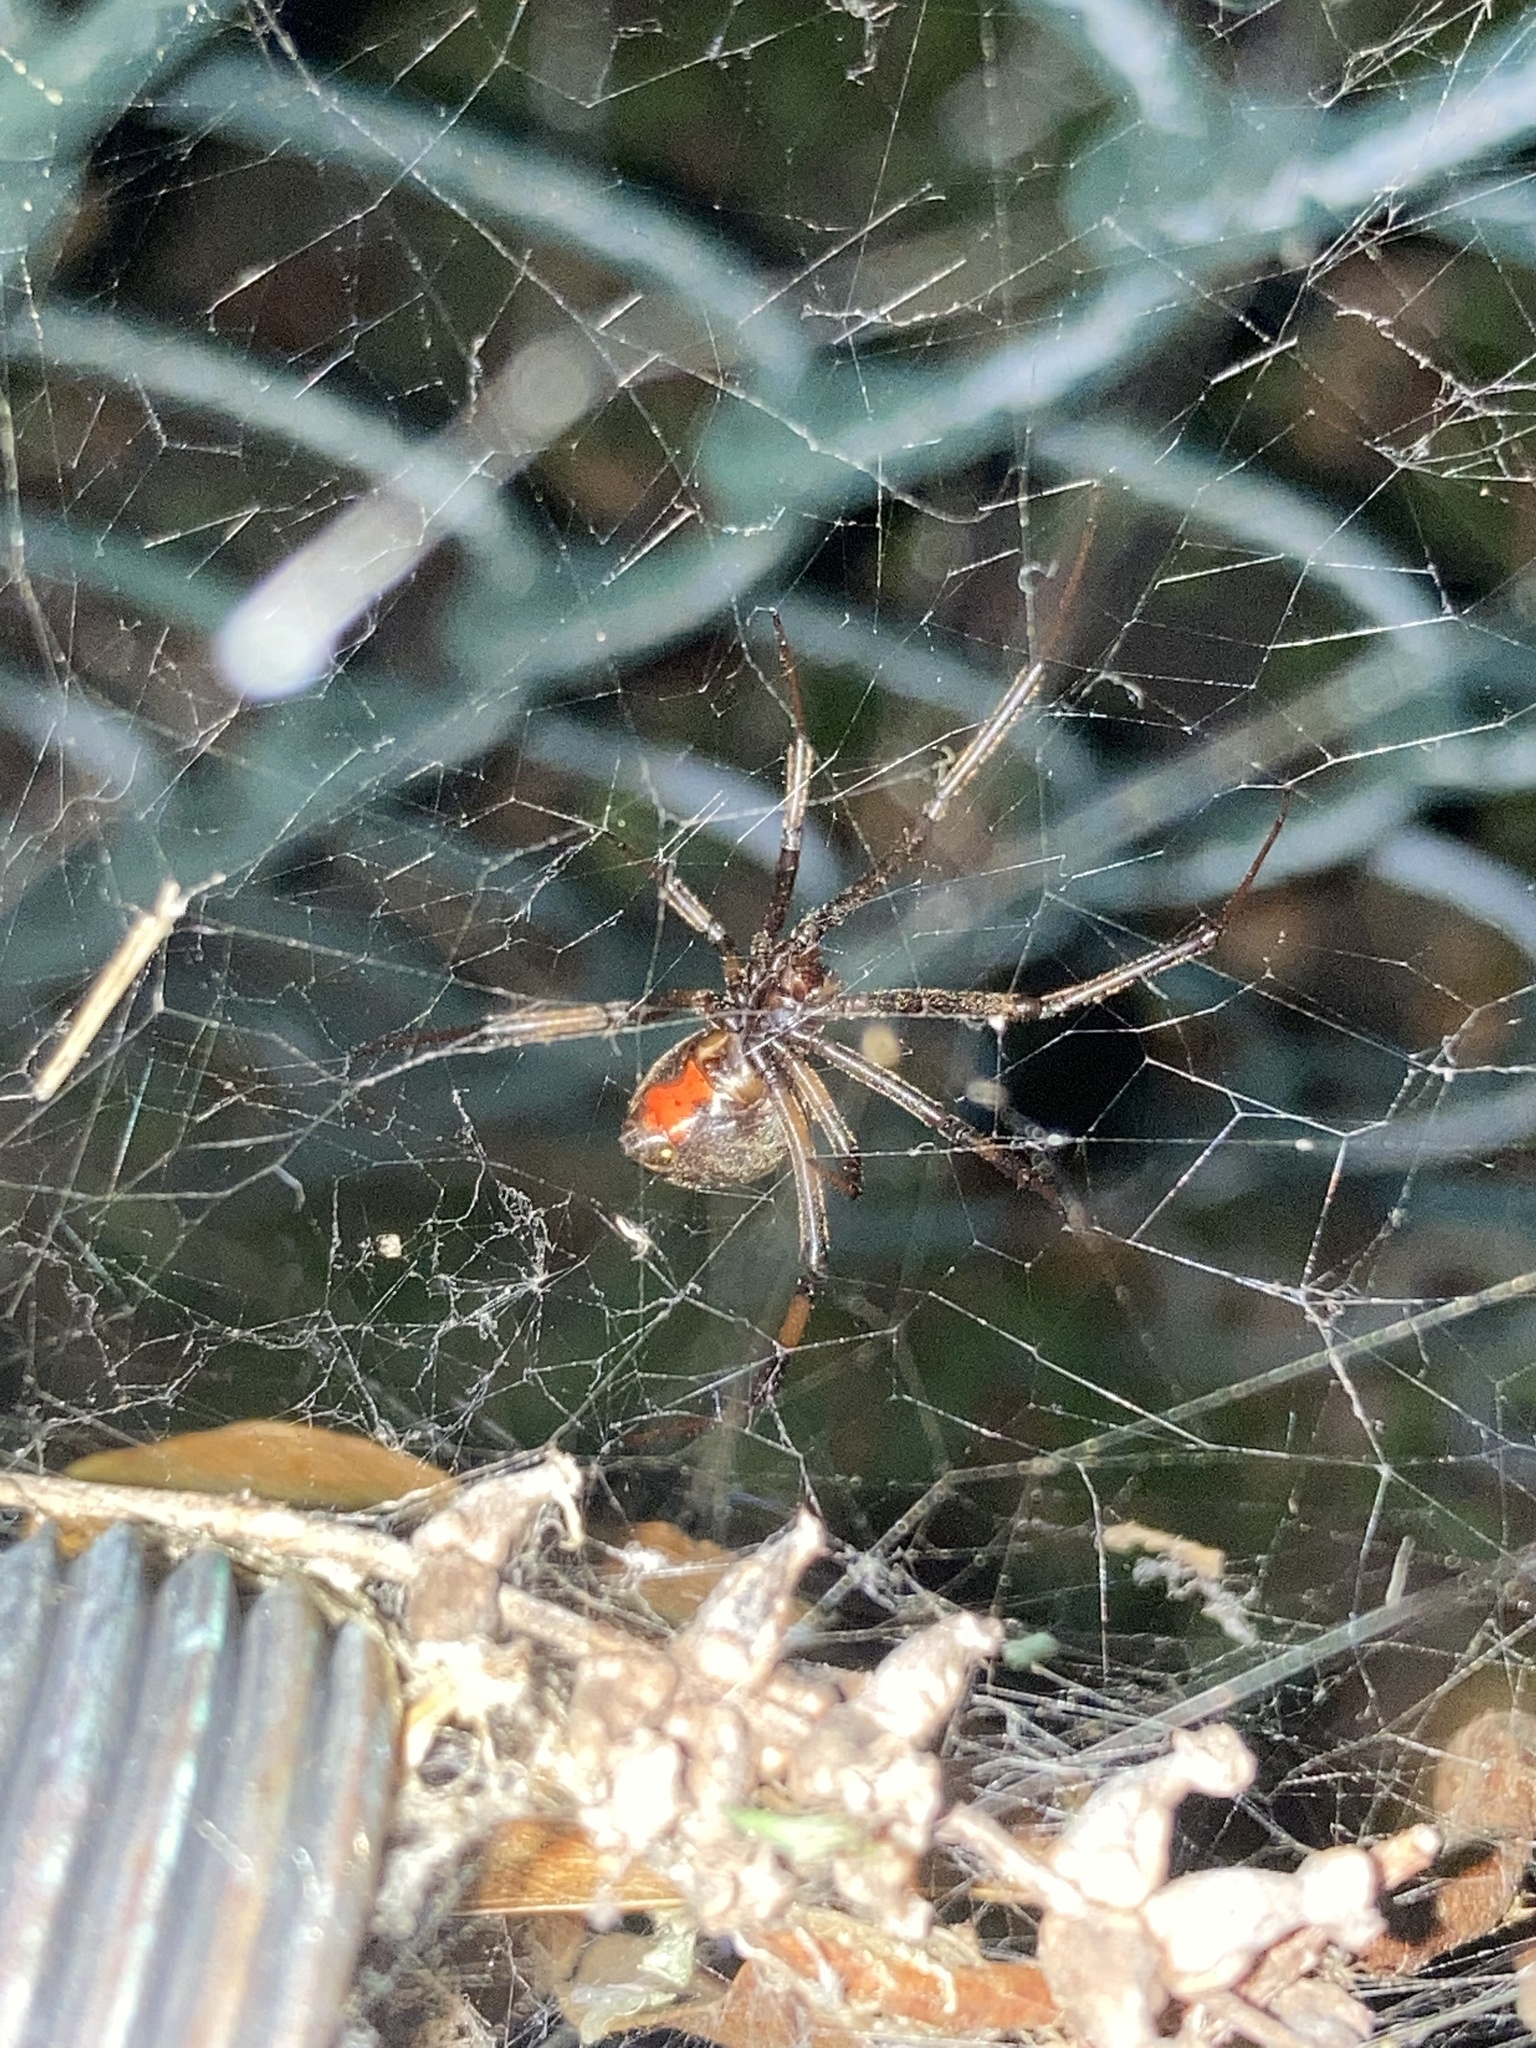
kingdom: Animalia
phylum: Arthropoda
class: Arachnida
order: Araneae
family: Theridiidae
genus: Latrodectus
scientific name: Latrodectus geometricus
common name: Brown widow spider
